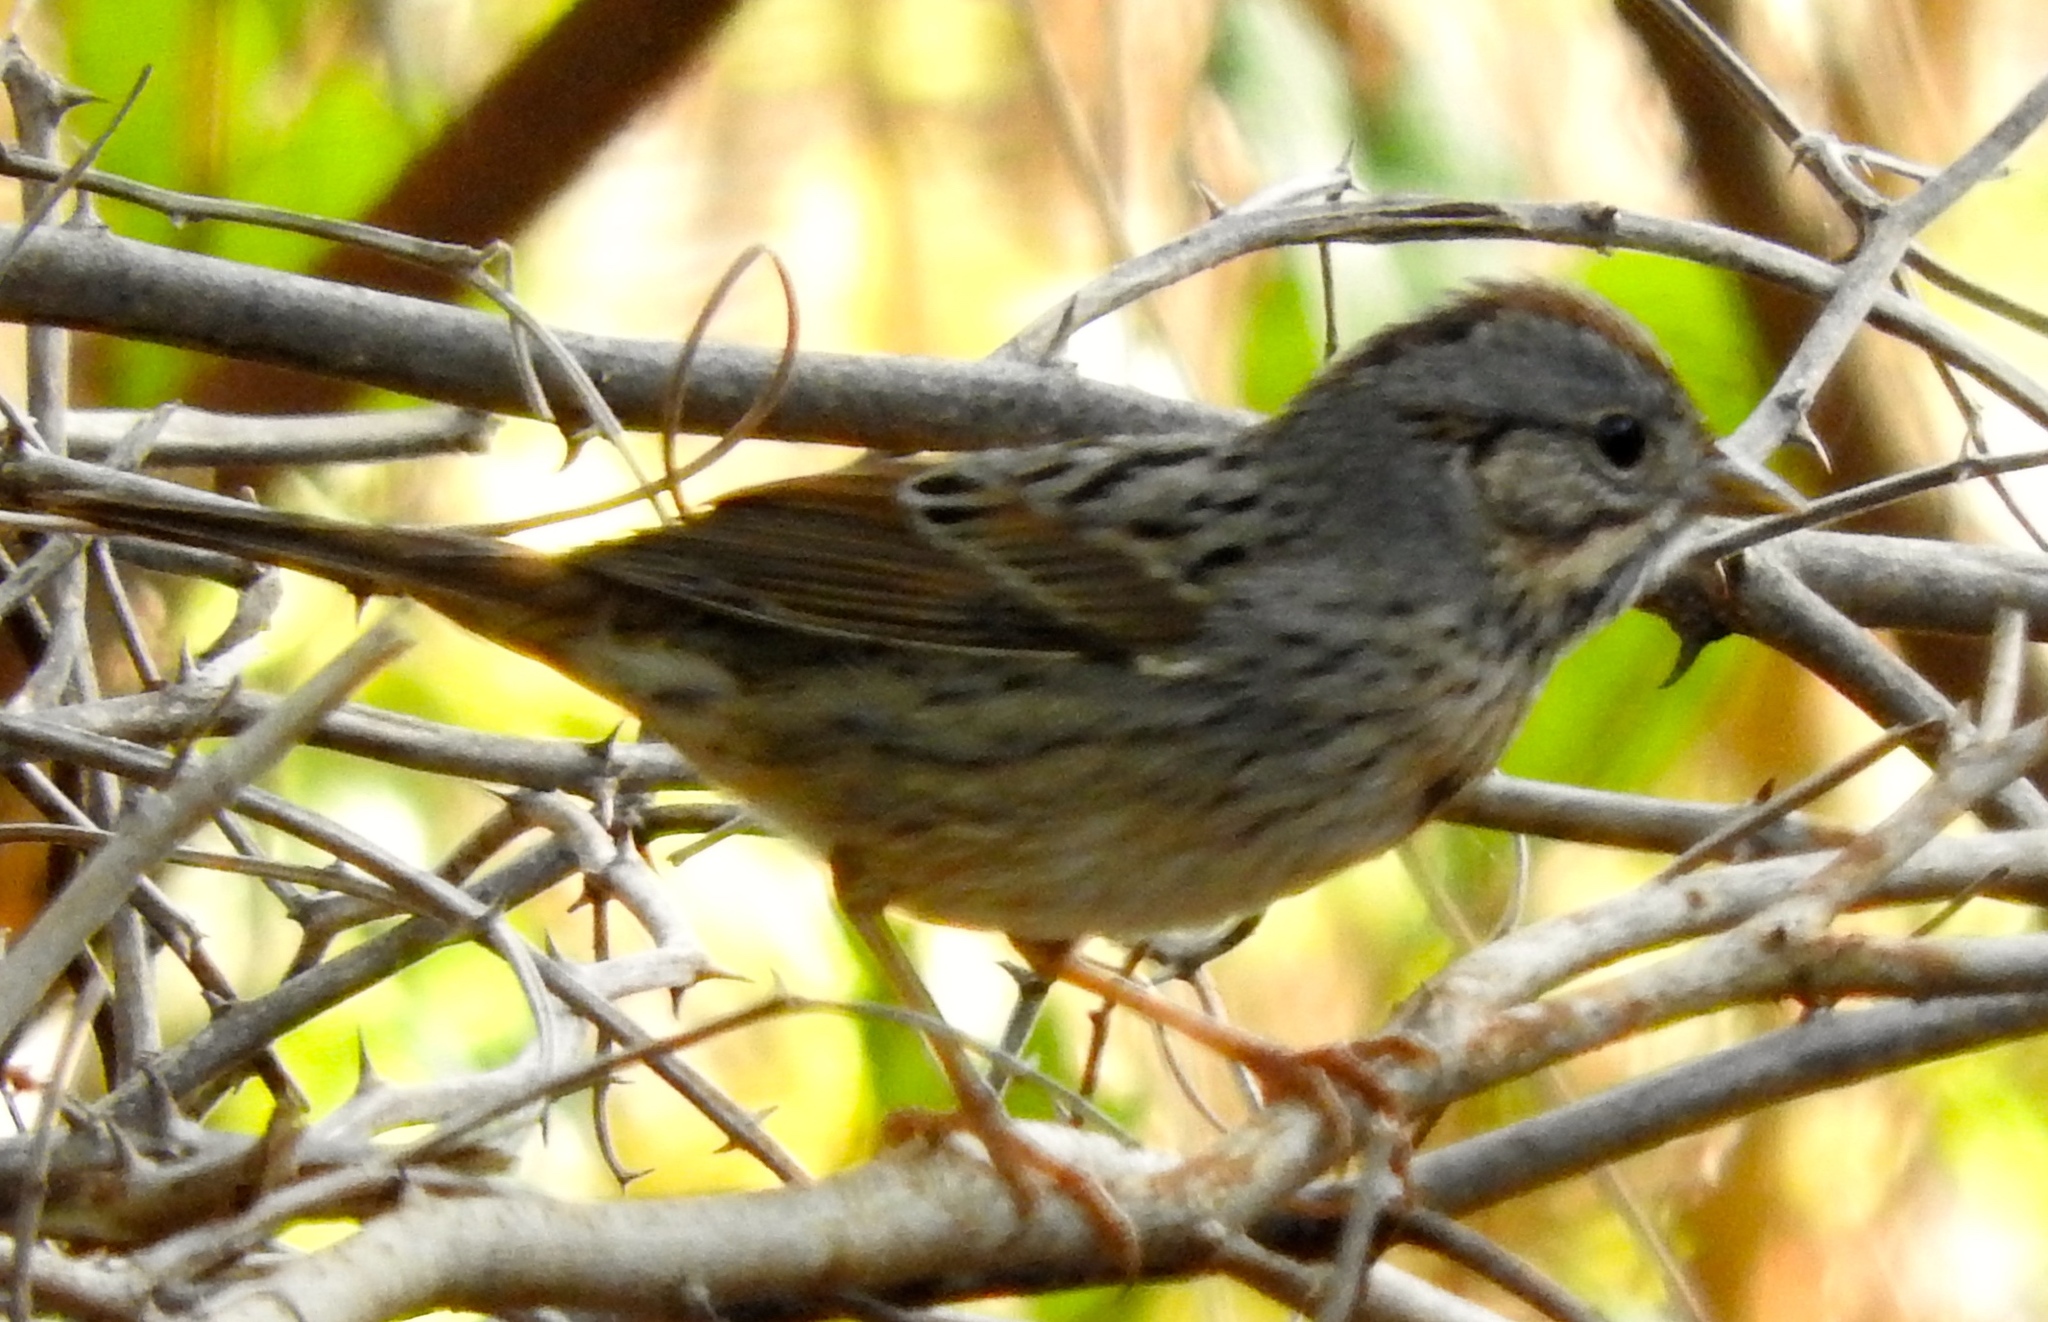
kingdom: Animalia
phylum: Chordata
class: Aves
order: Passeriformes
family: Passerellidae
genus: Melospiza
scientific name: Melospiza lincolnii
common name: Lincoln's sparrow
